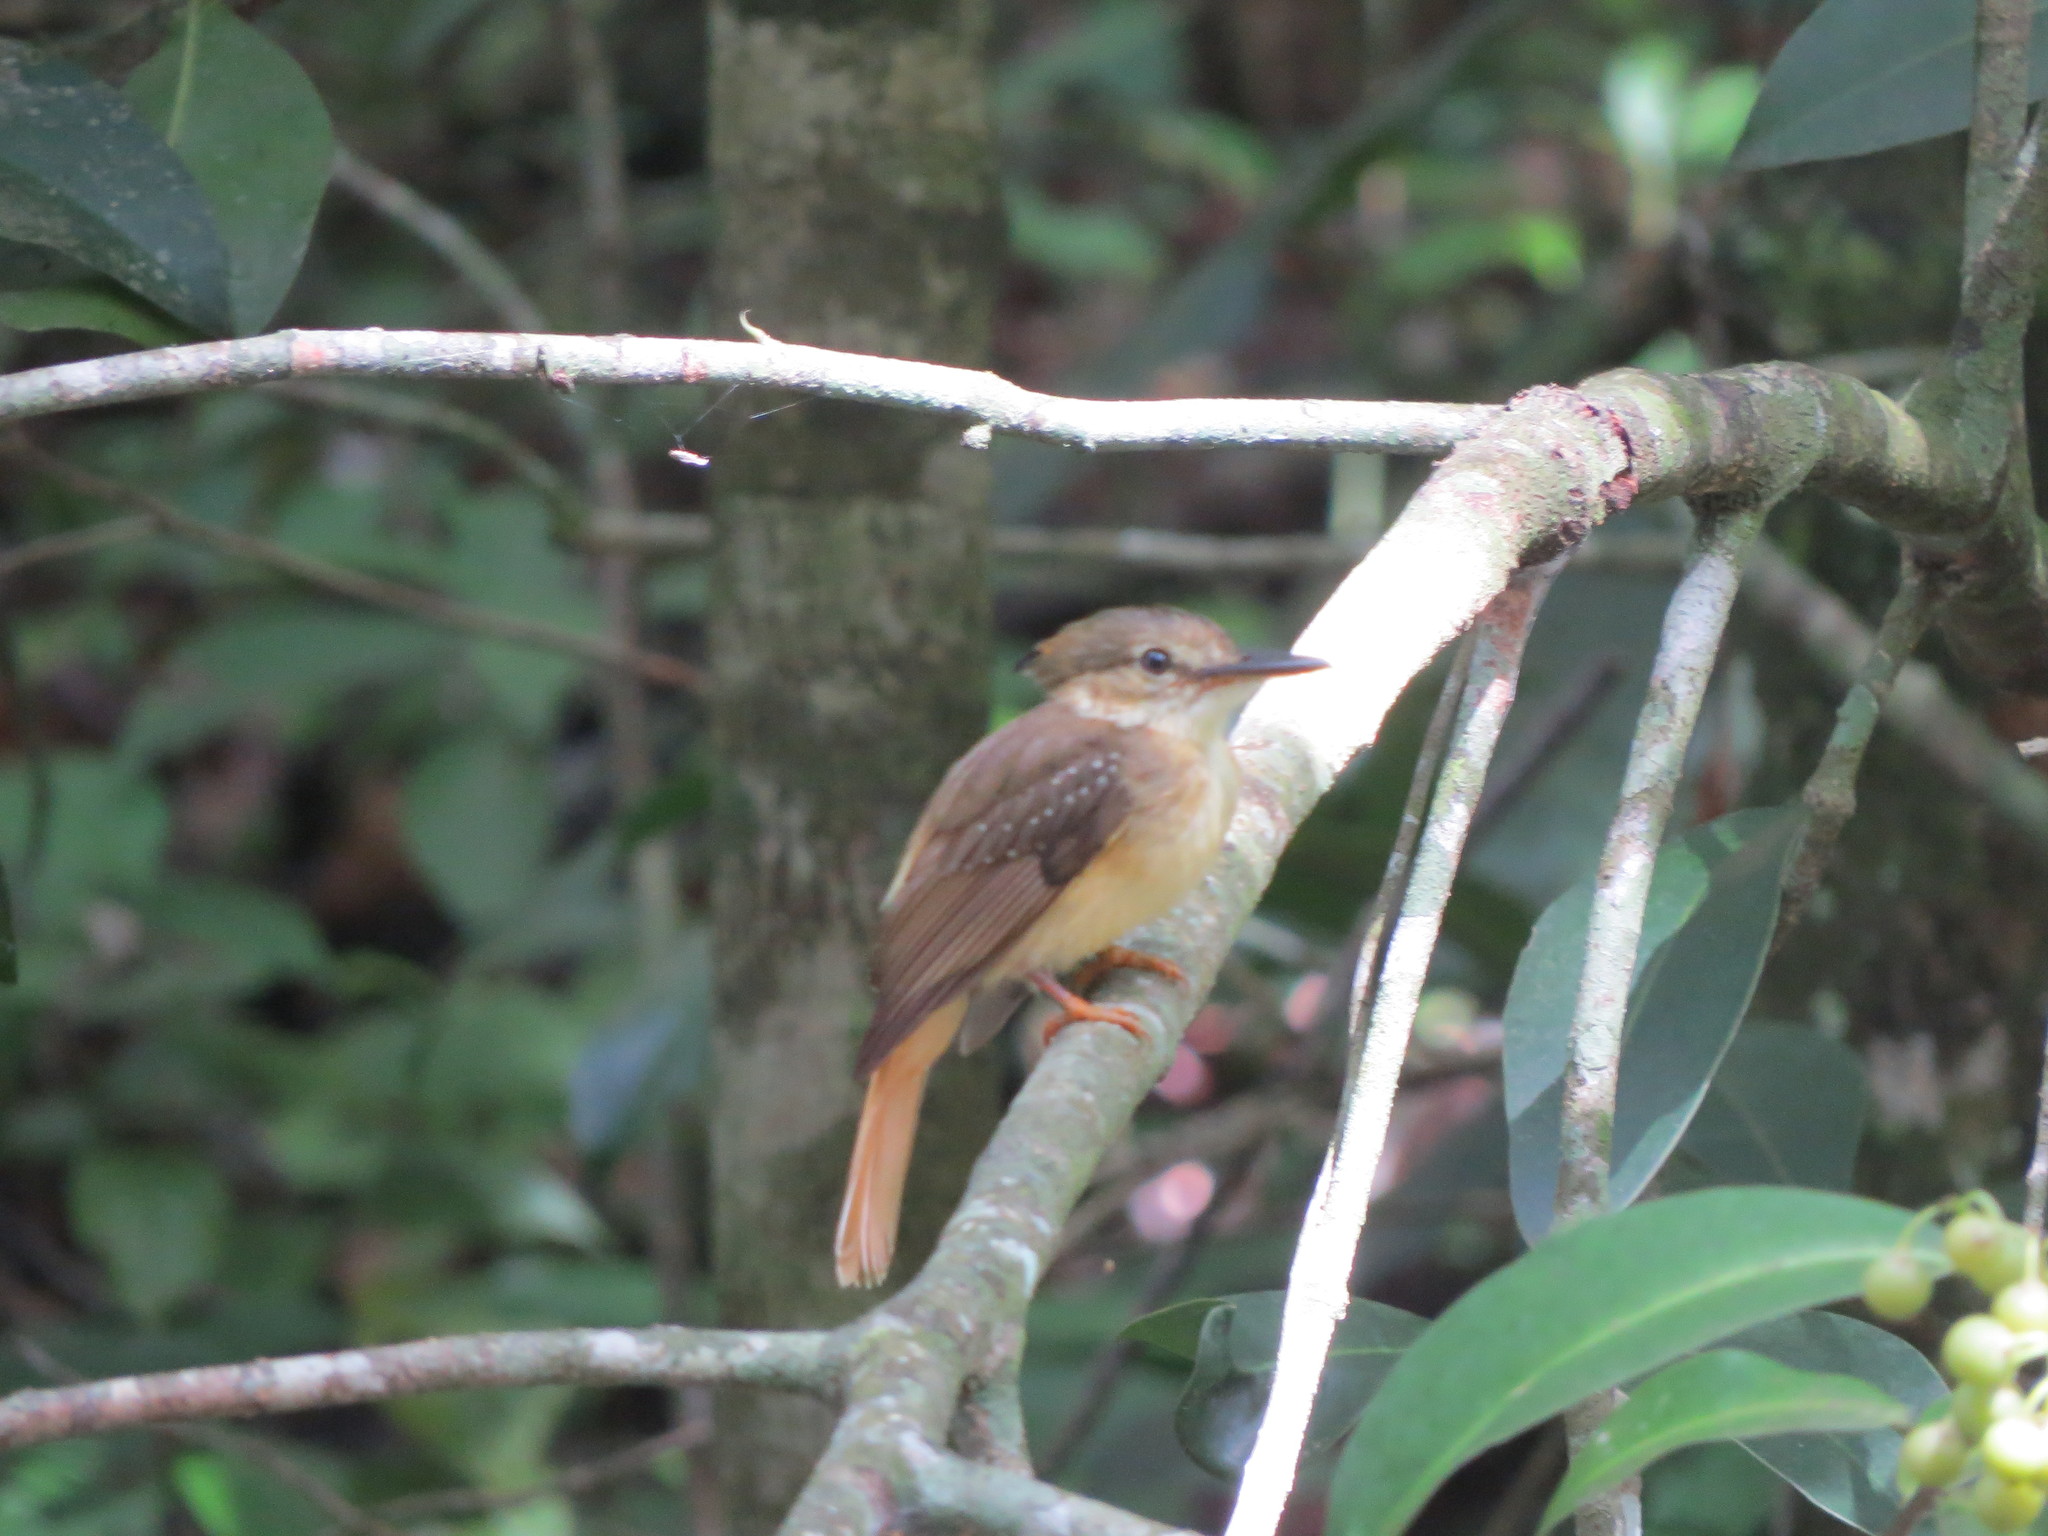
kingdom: Animalia
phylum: Chordata
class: Aves
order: Passeriformes
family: Tyrannidae
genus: Onychorhynchus
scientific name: Onychorhynchus coronatus
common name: Royal flycatcher
